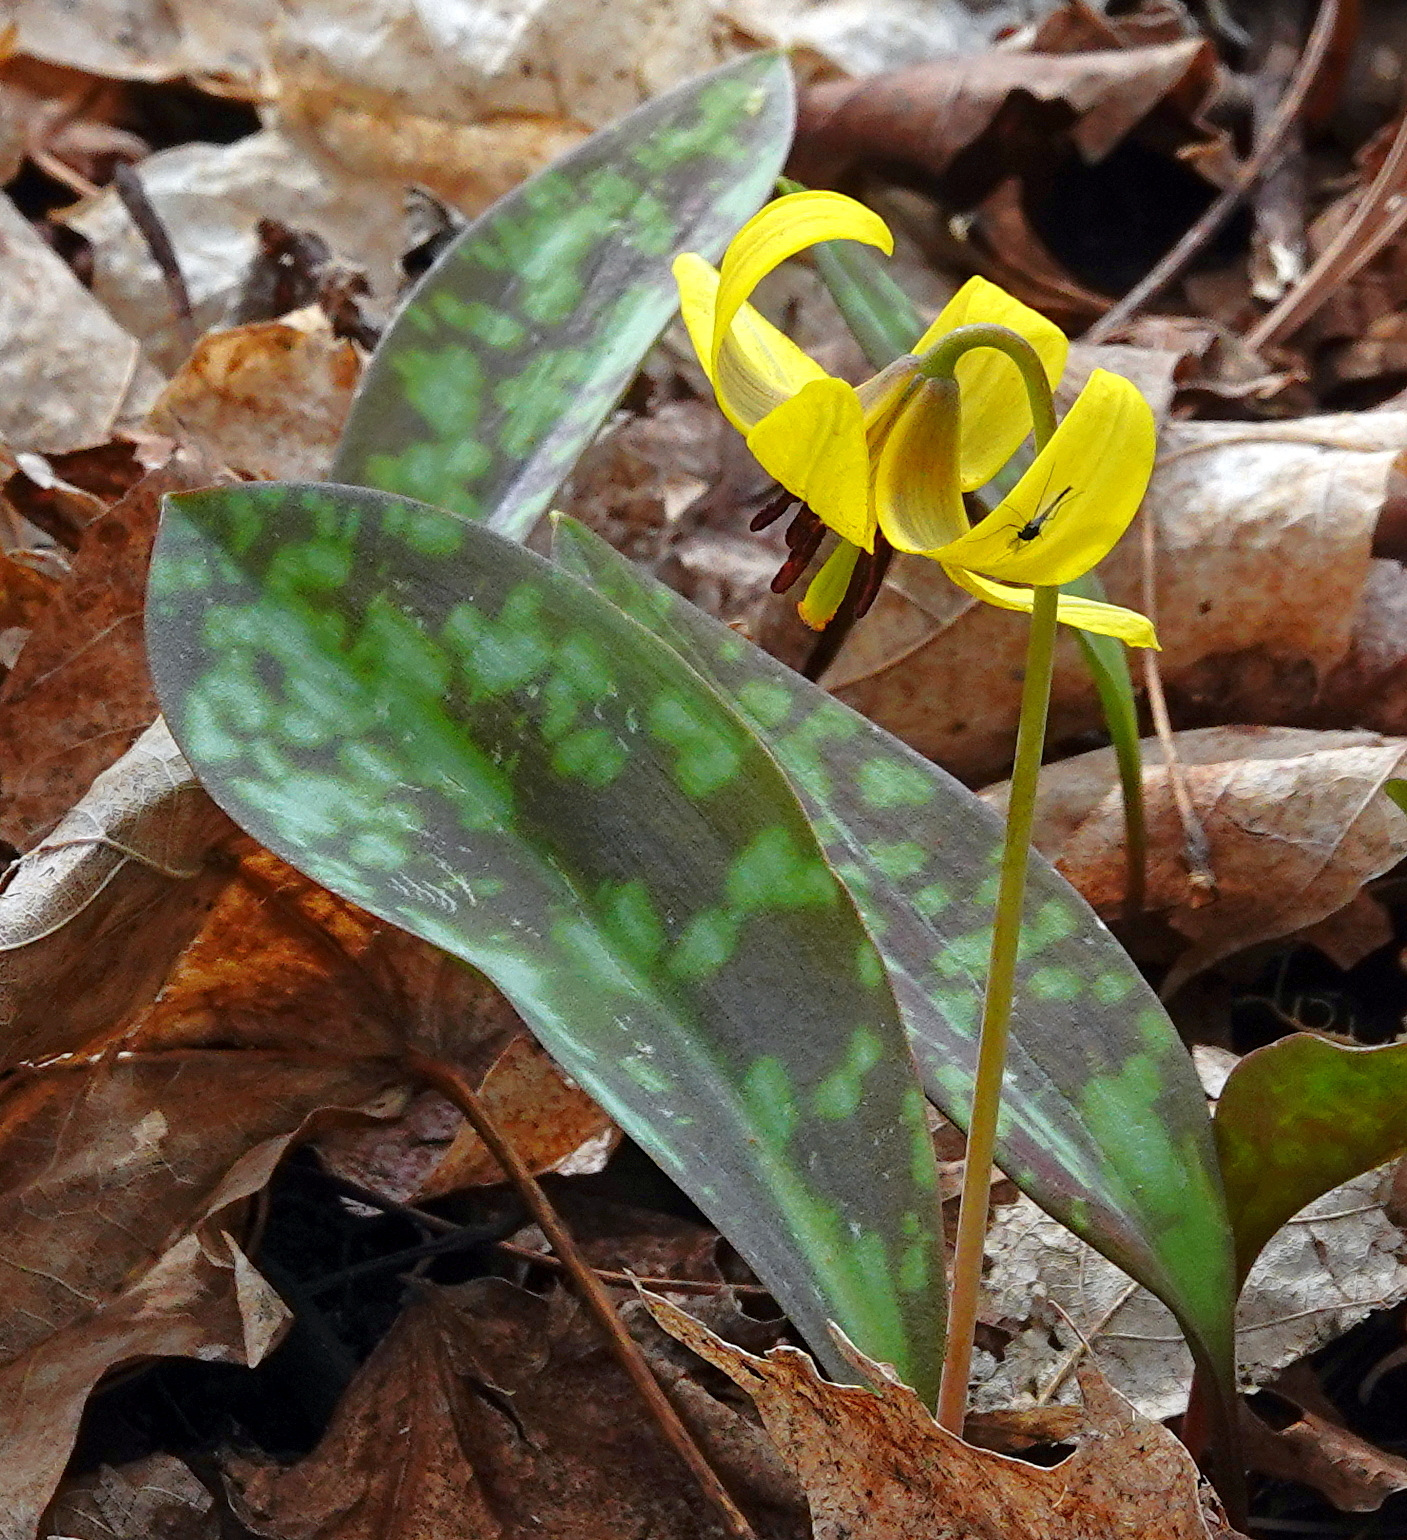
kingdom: Plantae
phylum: Tracheophyta
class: Liliopsida
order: Liliales
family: Liliaceae
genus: Erythronium
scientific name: Erythronium americanum
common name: Yellow adder's-tongue
